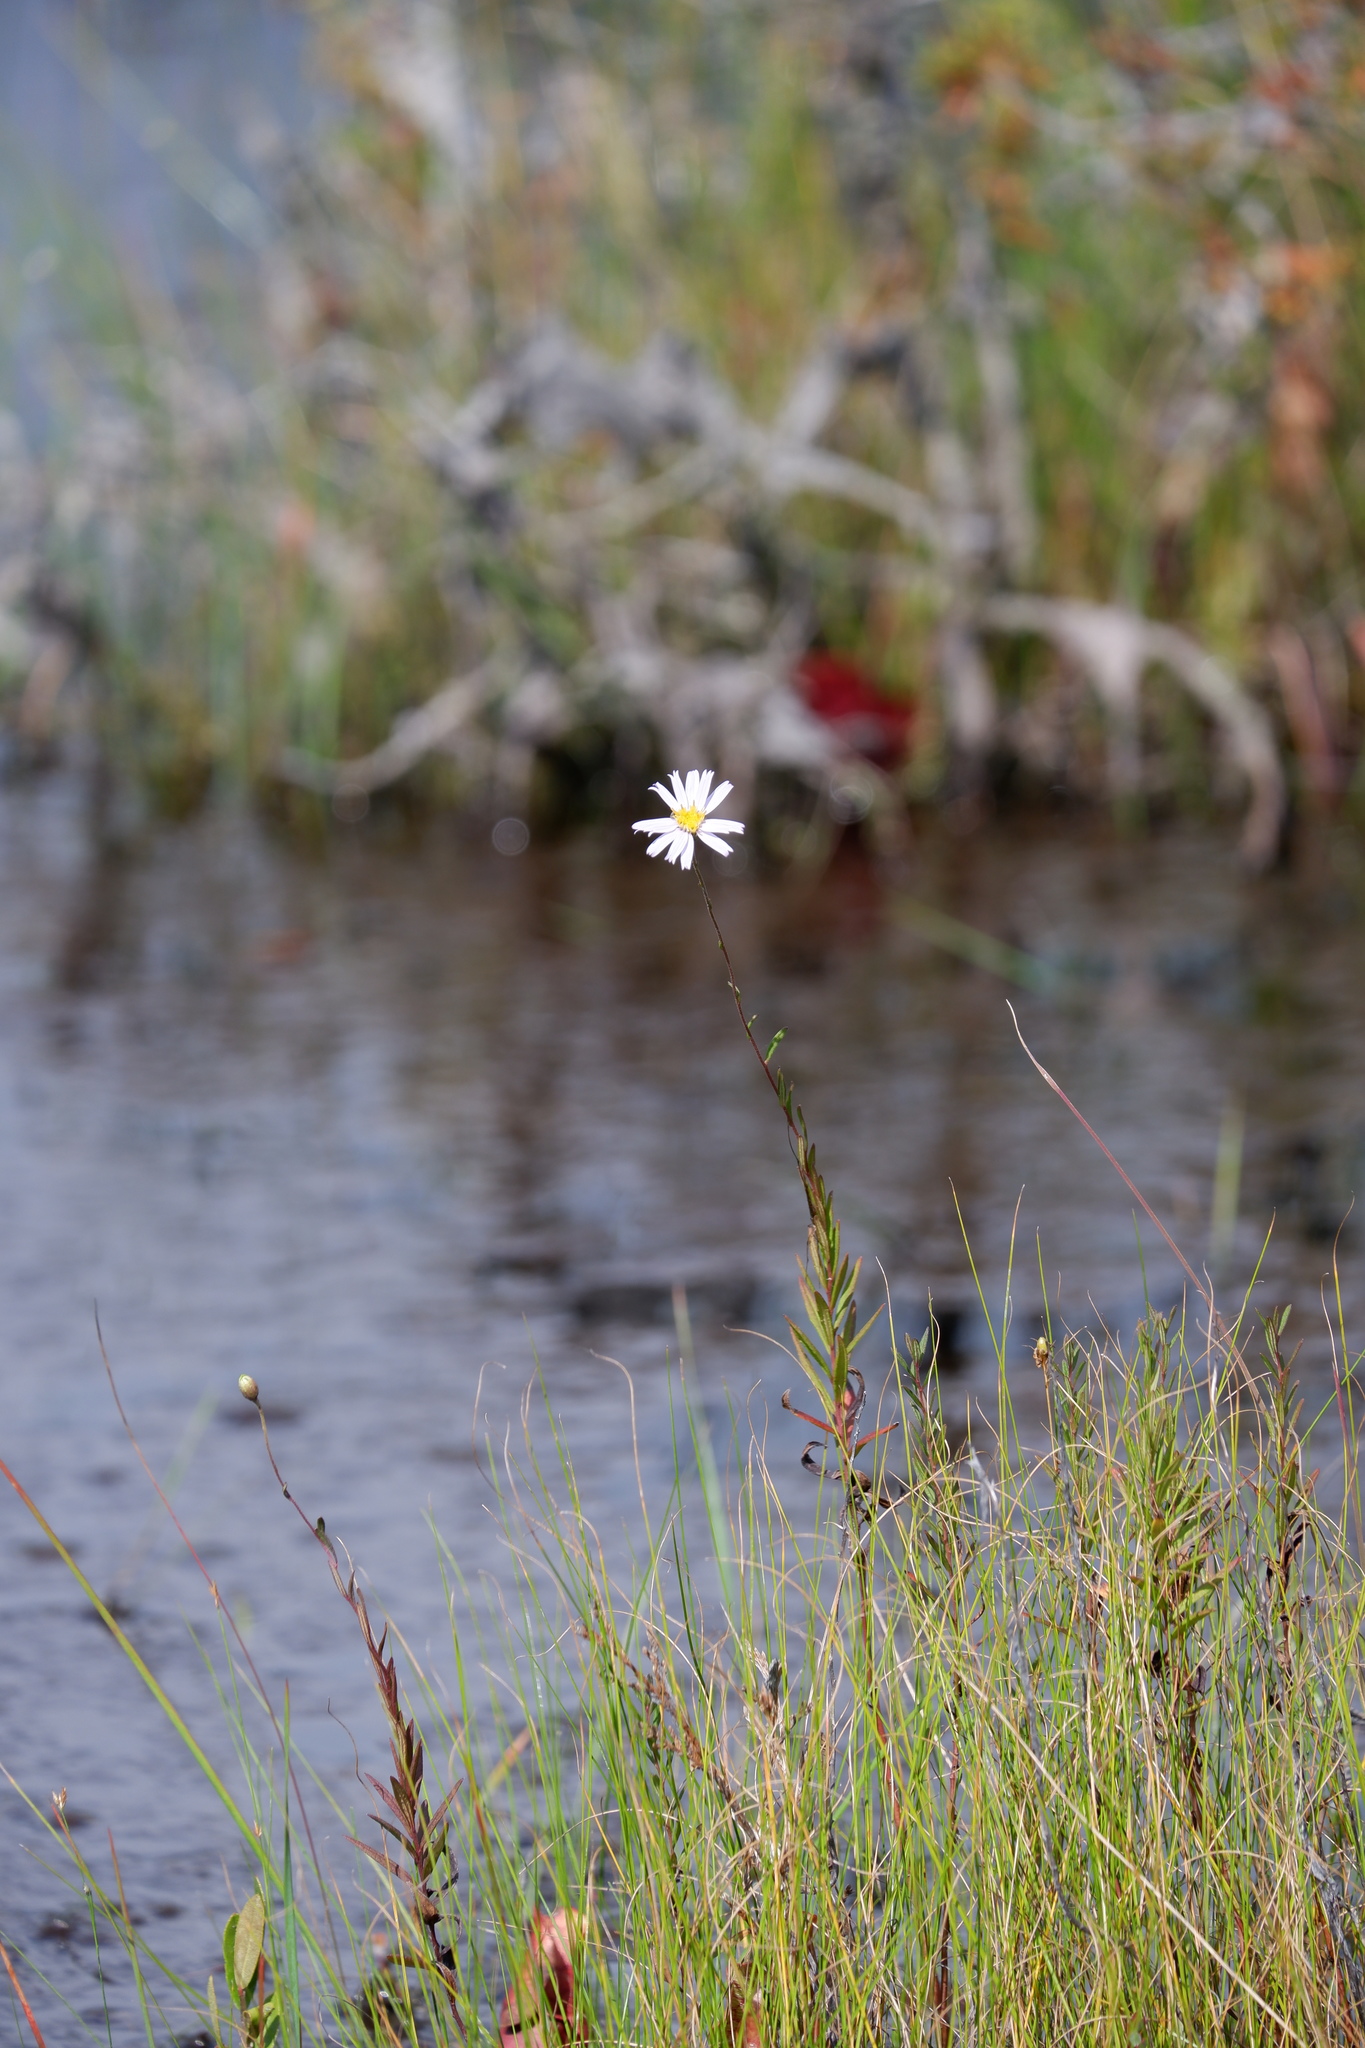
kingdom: Plantae
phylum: Tracheophyta
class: Magnoliopsida
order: Asterales
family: Asteraceae
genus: Oclemena
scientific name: Oclemena nemoralis
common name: Bog aster
